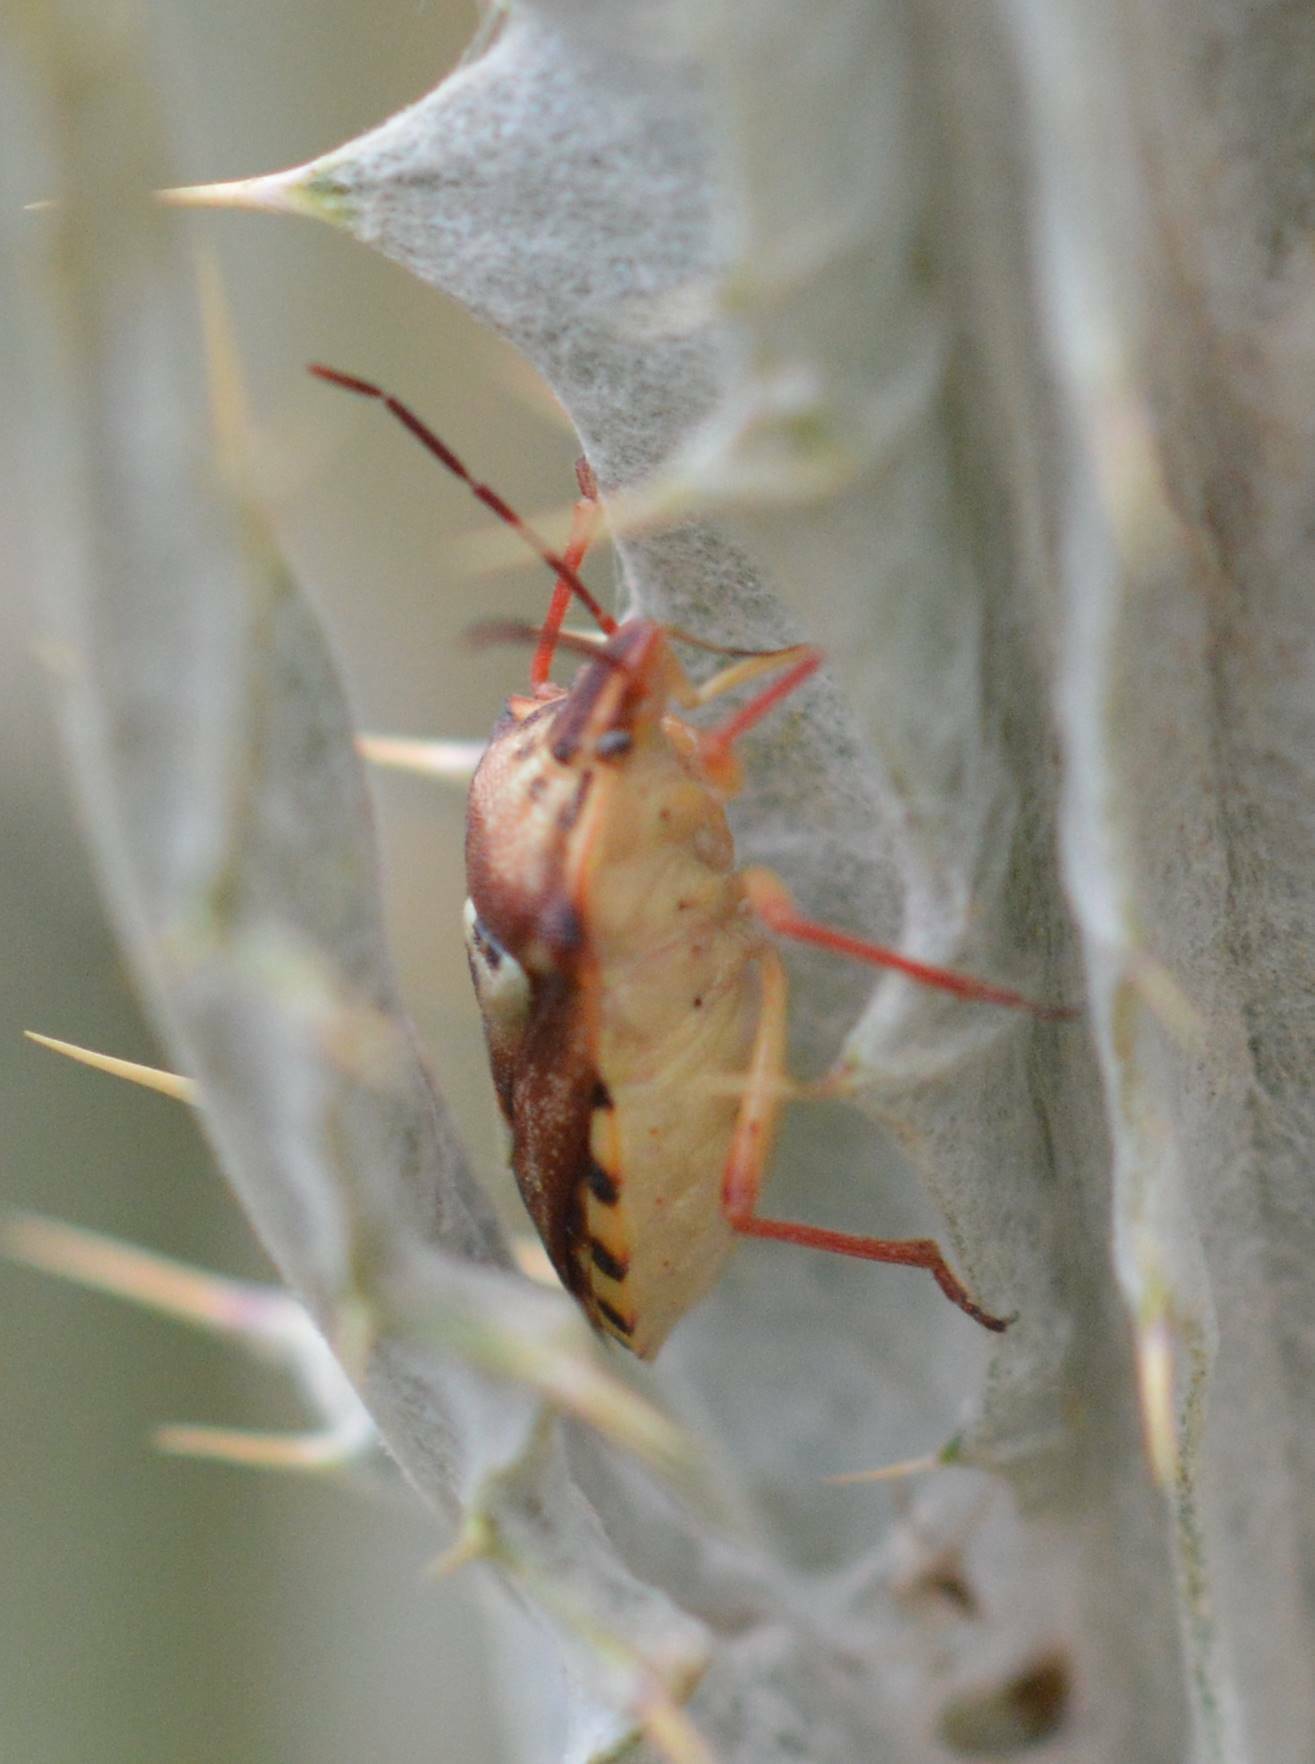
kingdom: Animalia
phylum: Arthropoda
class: Insecta
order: Hemiptera
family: Miridae
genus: Orthops
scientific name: Orthops kalmii
